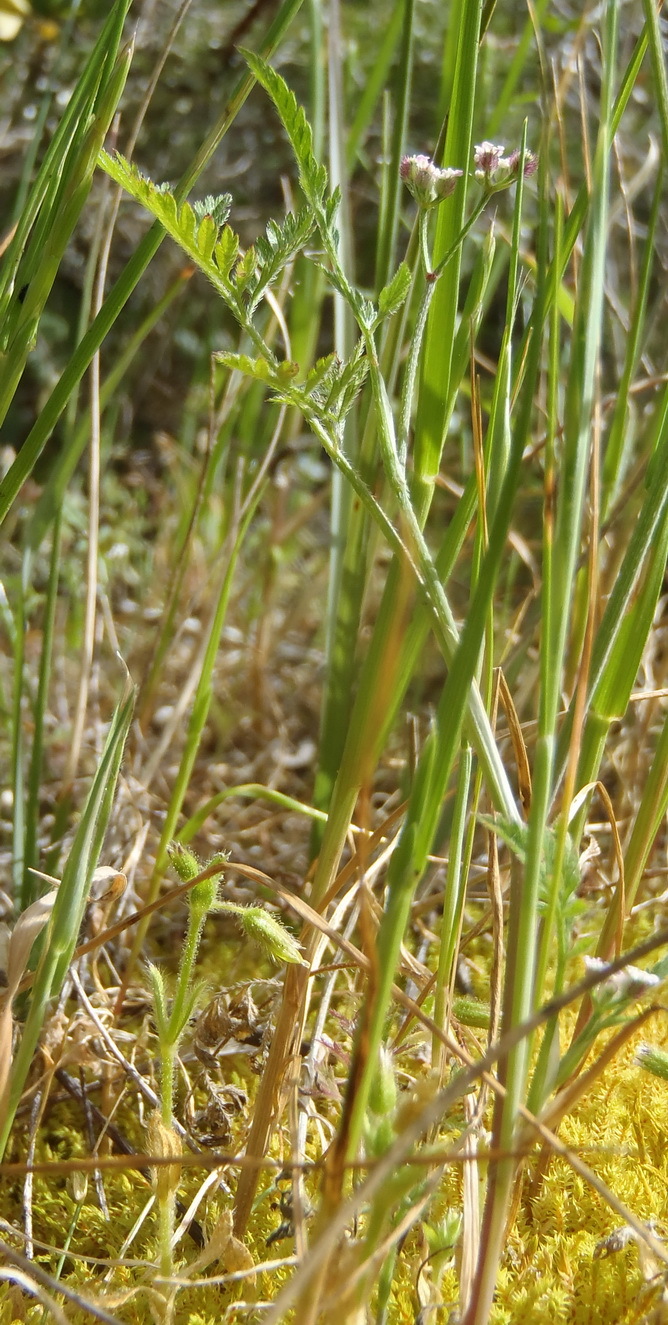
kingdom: Plantae
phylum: Tracheophyta
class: Magnoliopsida
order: Apiales
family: Apiaceae
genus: Torilis
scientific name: Torilis africana
